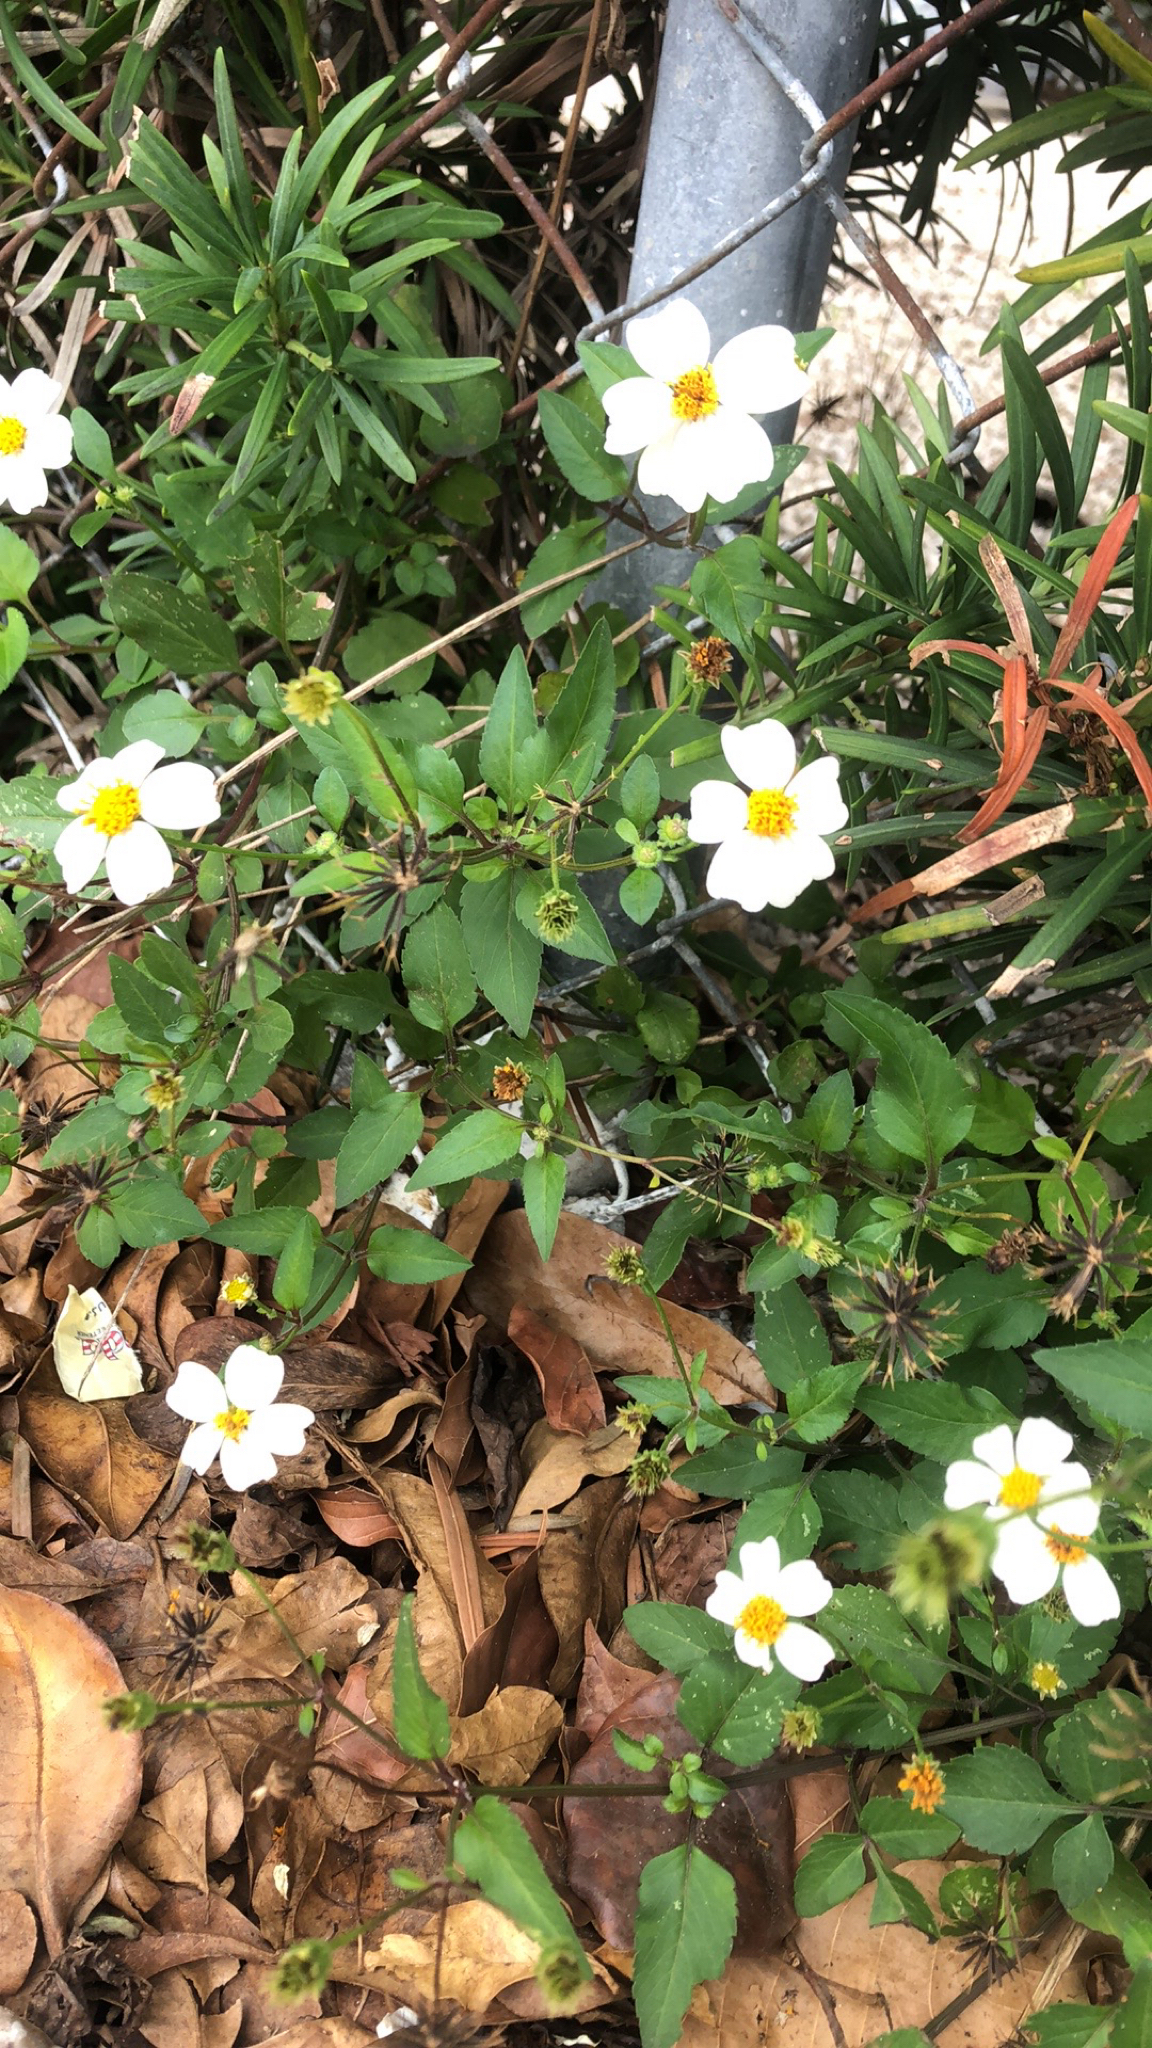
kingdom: Plantae
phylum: Tracheophyta
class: Magnoliopsida
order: Asterales
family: Asteraceae
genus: Bidens
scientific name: Bidens alba
